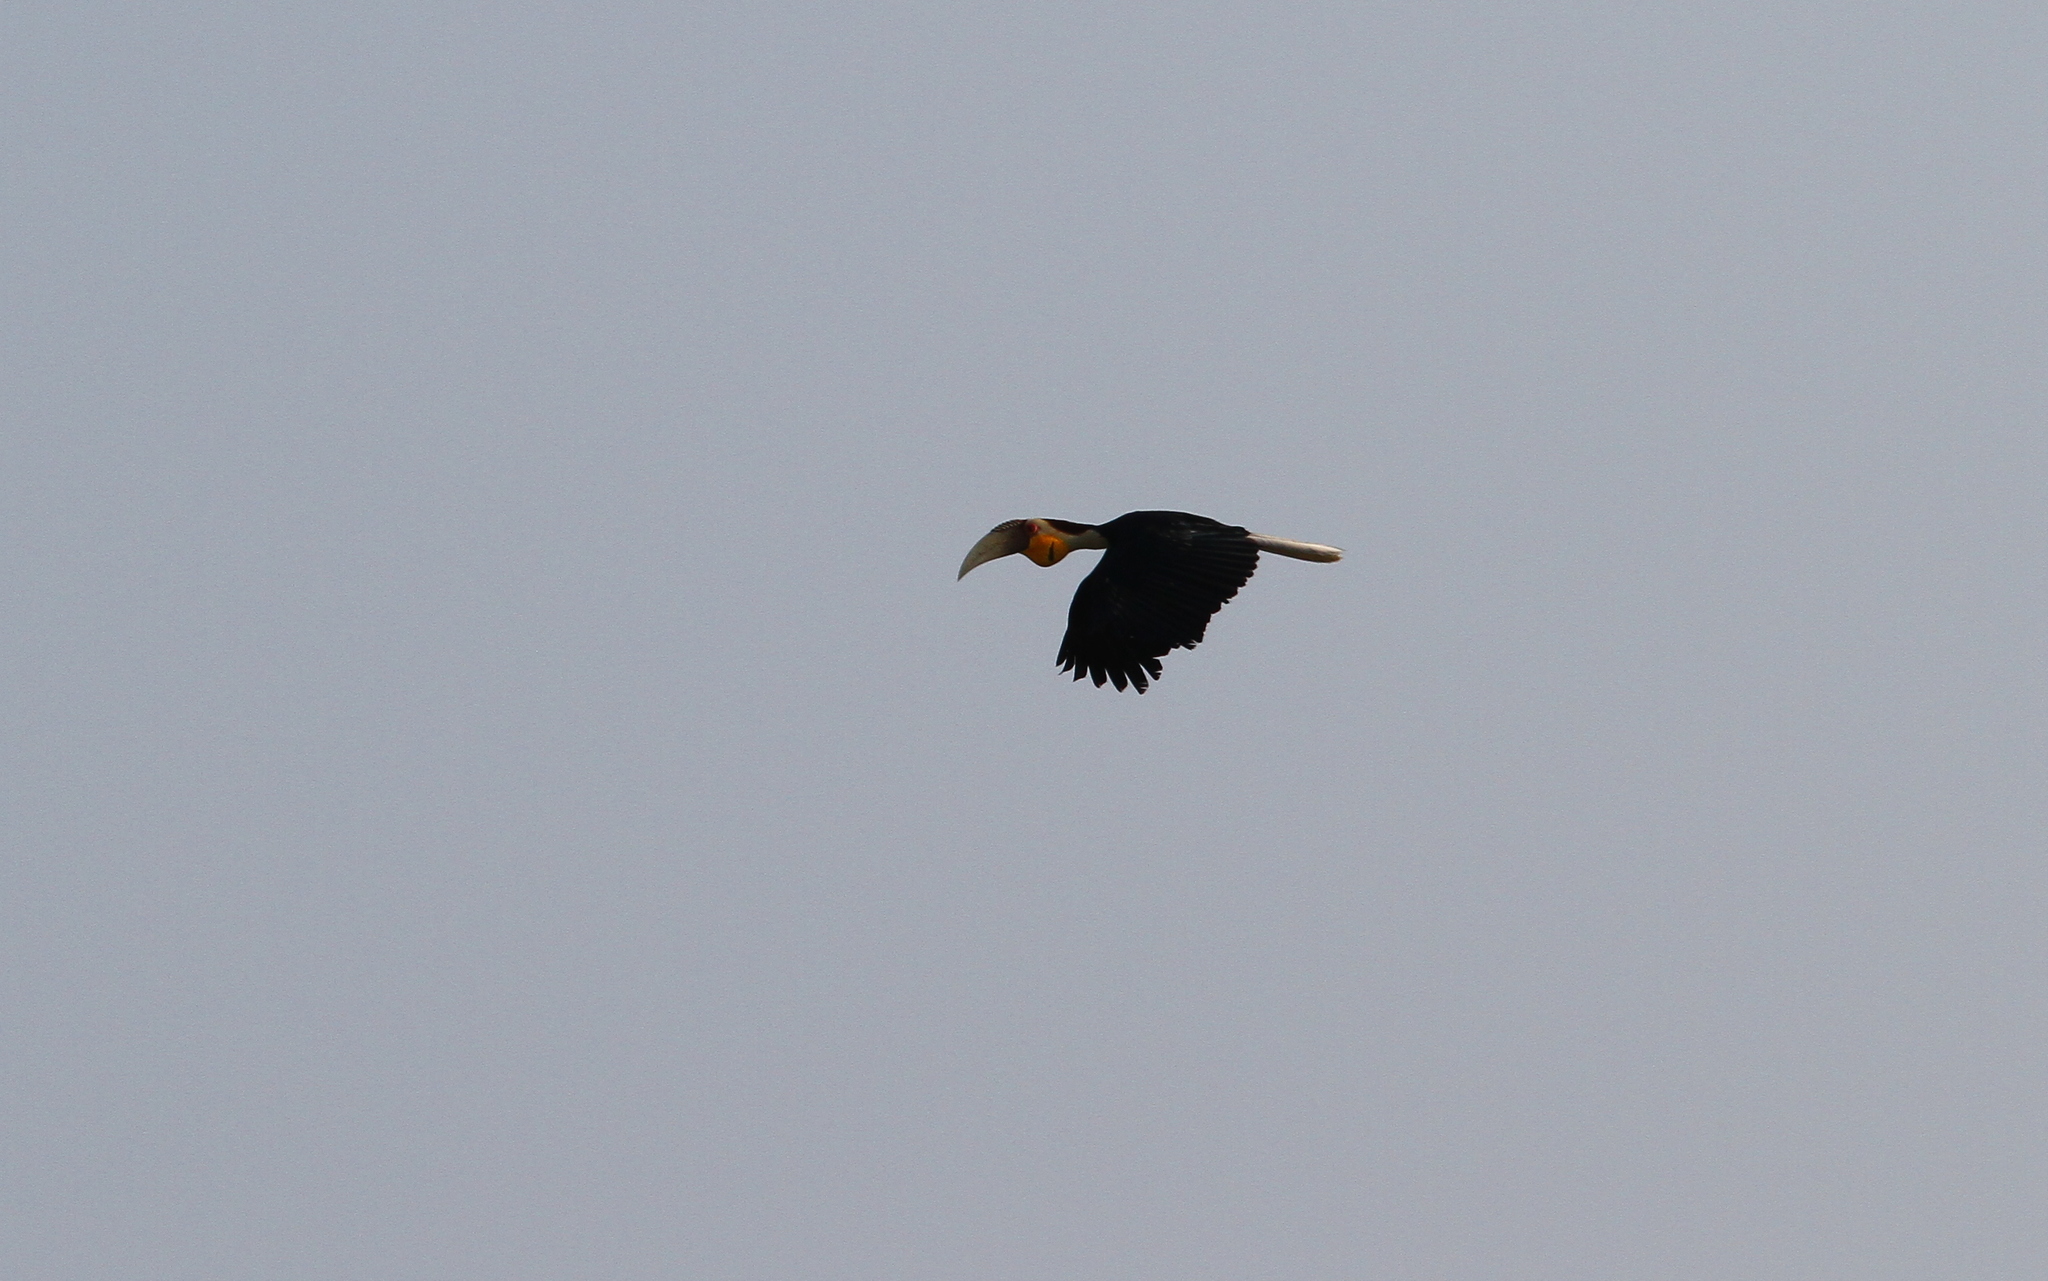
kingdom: Animalia
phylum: Chordata
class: Aves
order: Bucerotiformes
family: Bucerotidae
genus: Rhyticeros
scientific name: Rhyticeros undulatus
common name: Wreathed hornbill
